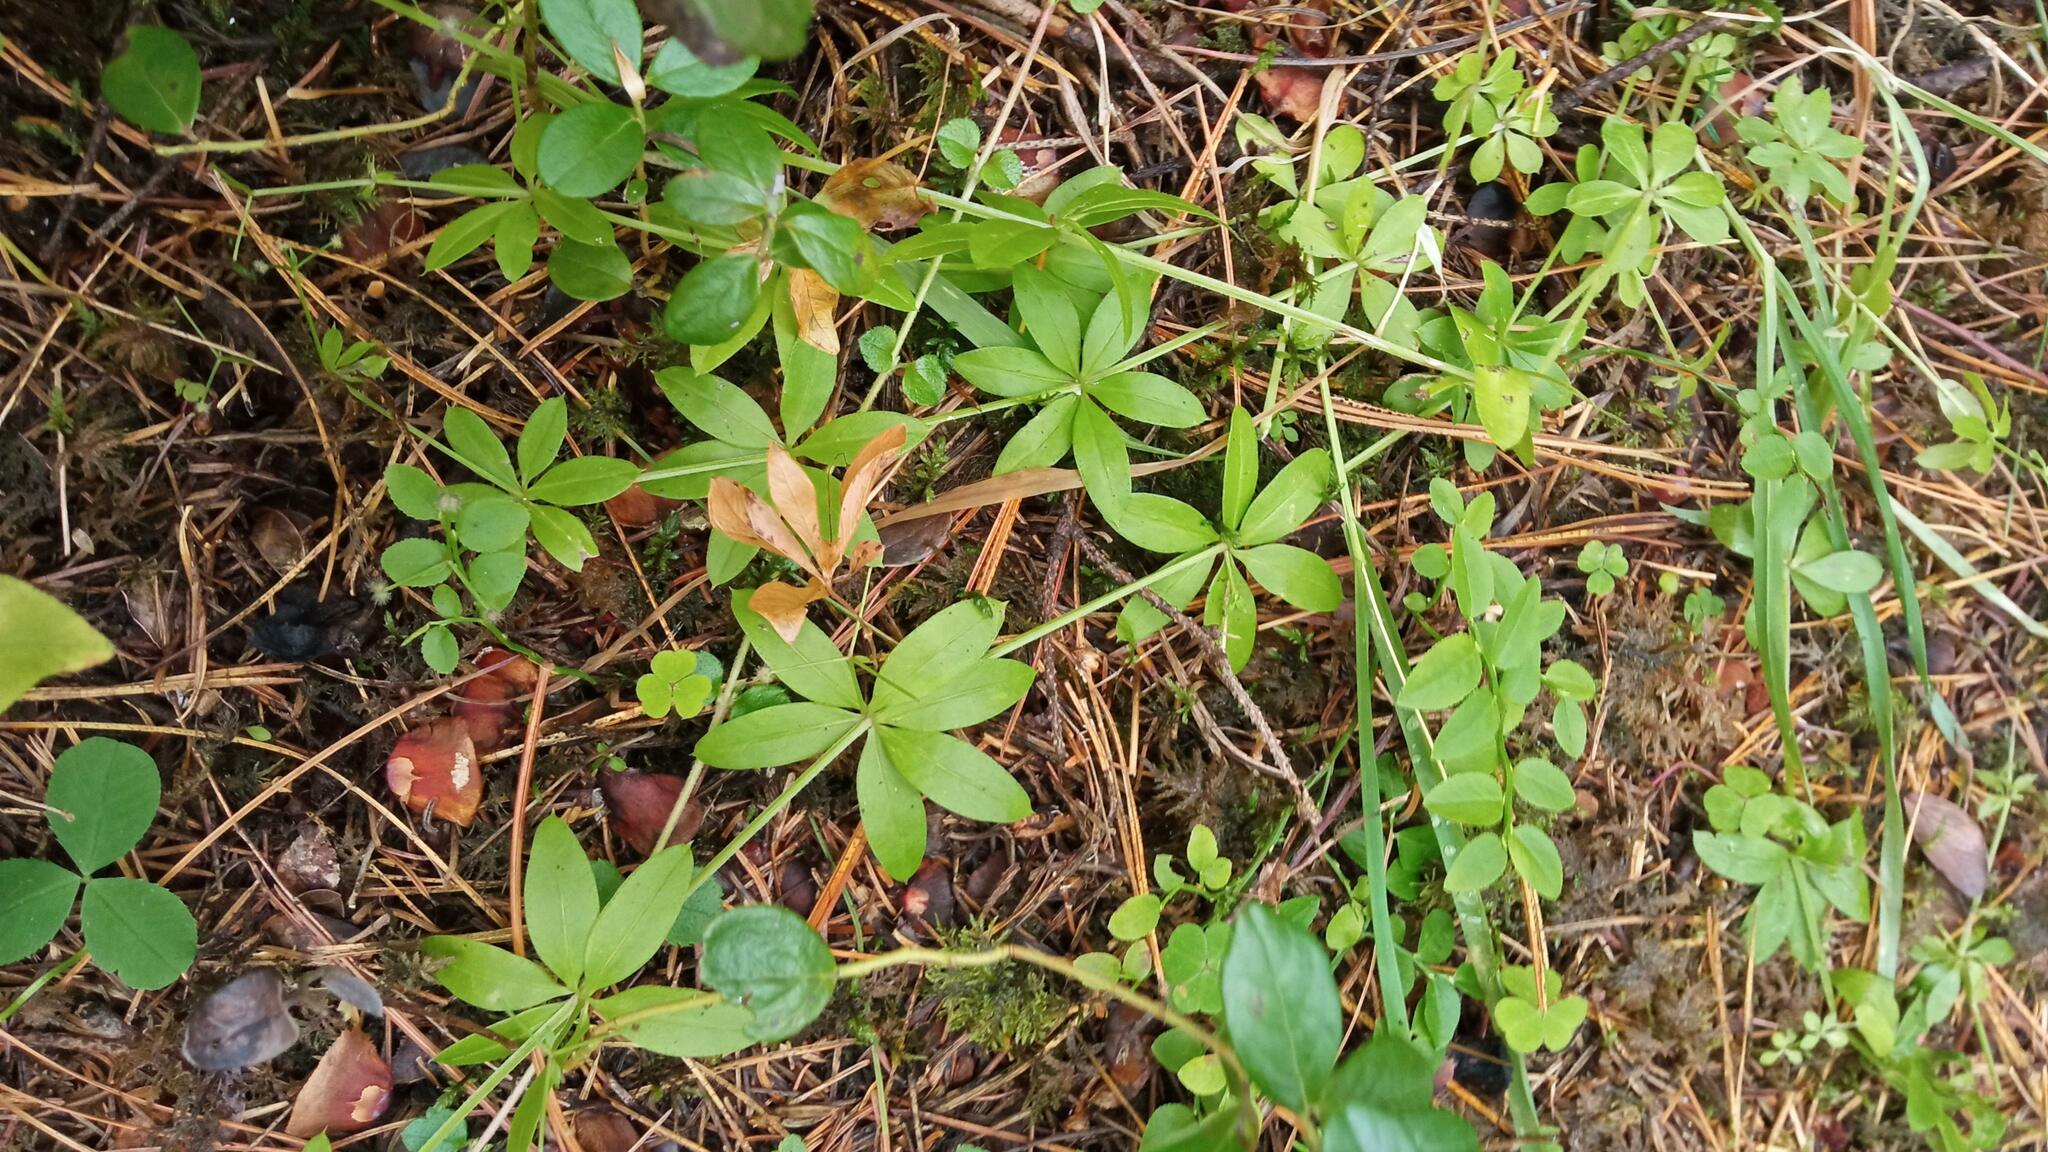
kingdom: Plantae
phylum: Tracheophyta
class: Magnoliopsida
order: Gentianales
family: Rubiaceae
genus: Galium
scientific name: Galium triflorum
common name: Fragrant bedstraw
